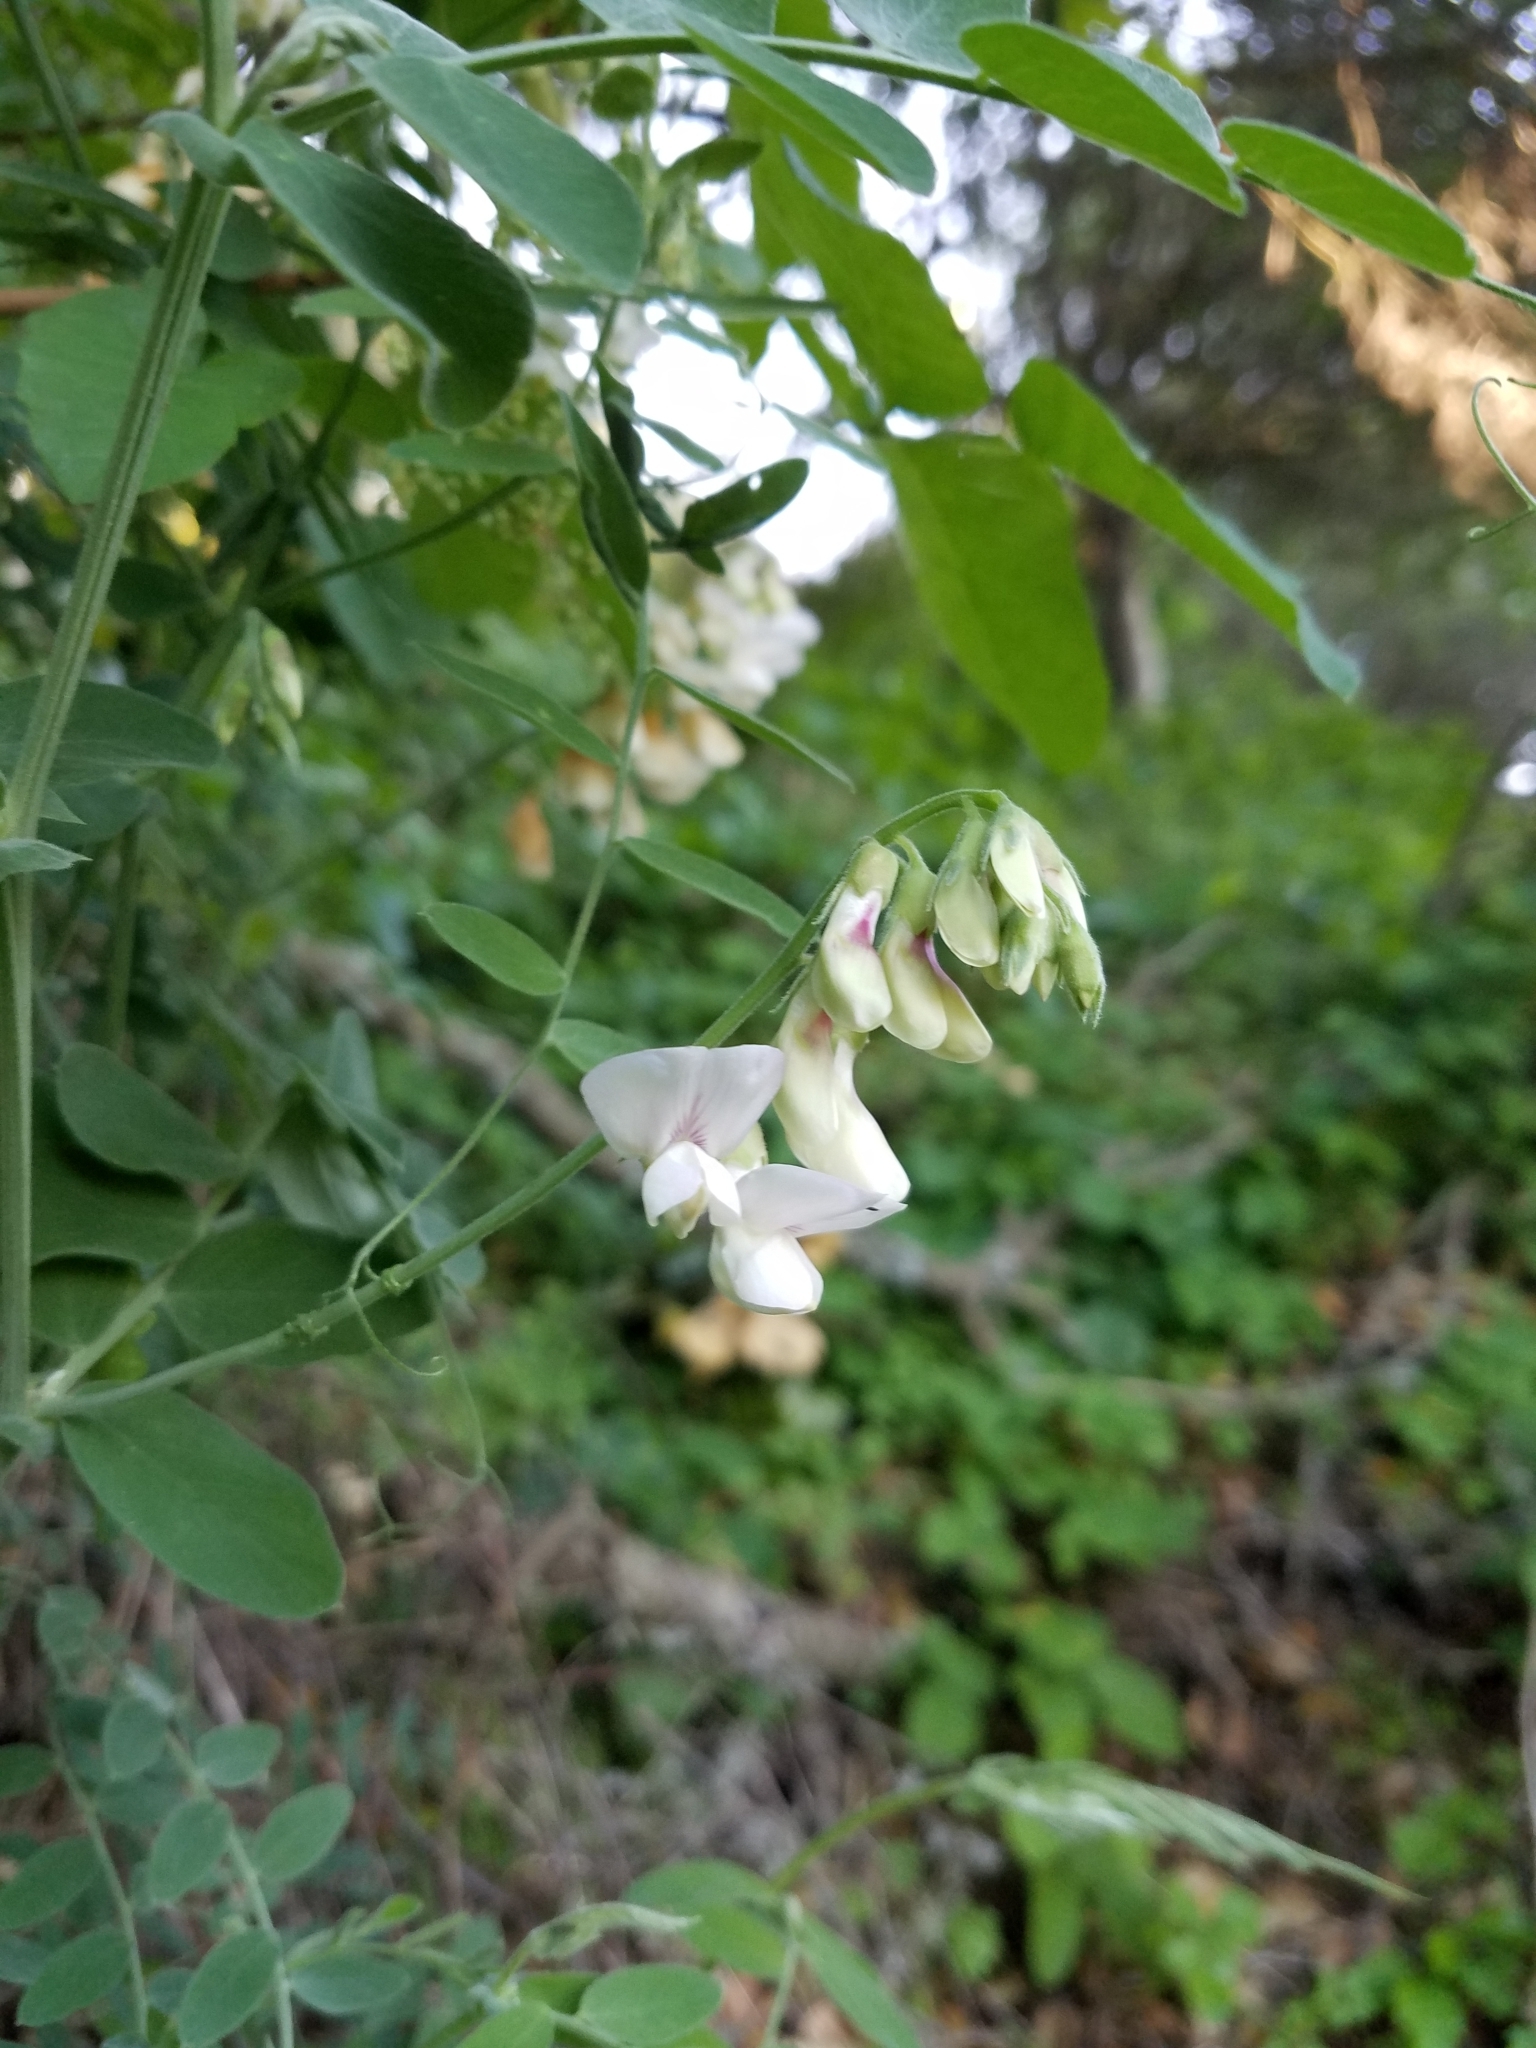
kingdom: Plantae
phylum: Tracheophyta
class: Magnoliopsida
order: Fabales
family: Fabaceae
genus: Lathyrus
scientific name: Lathyrus vestitus
